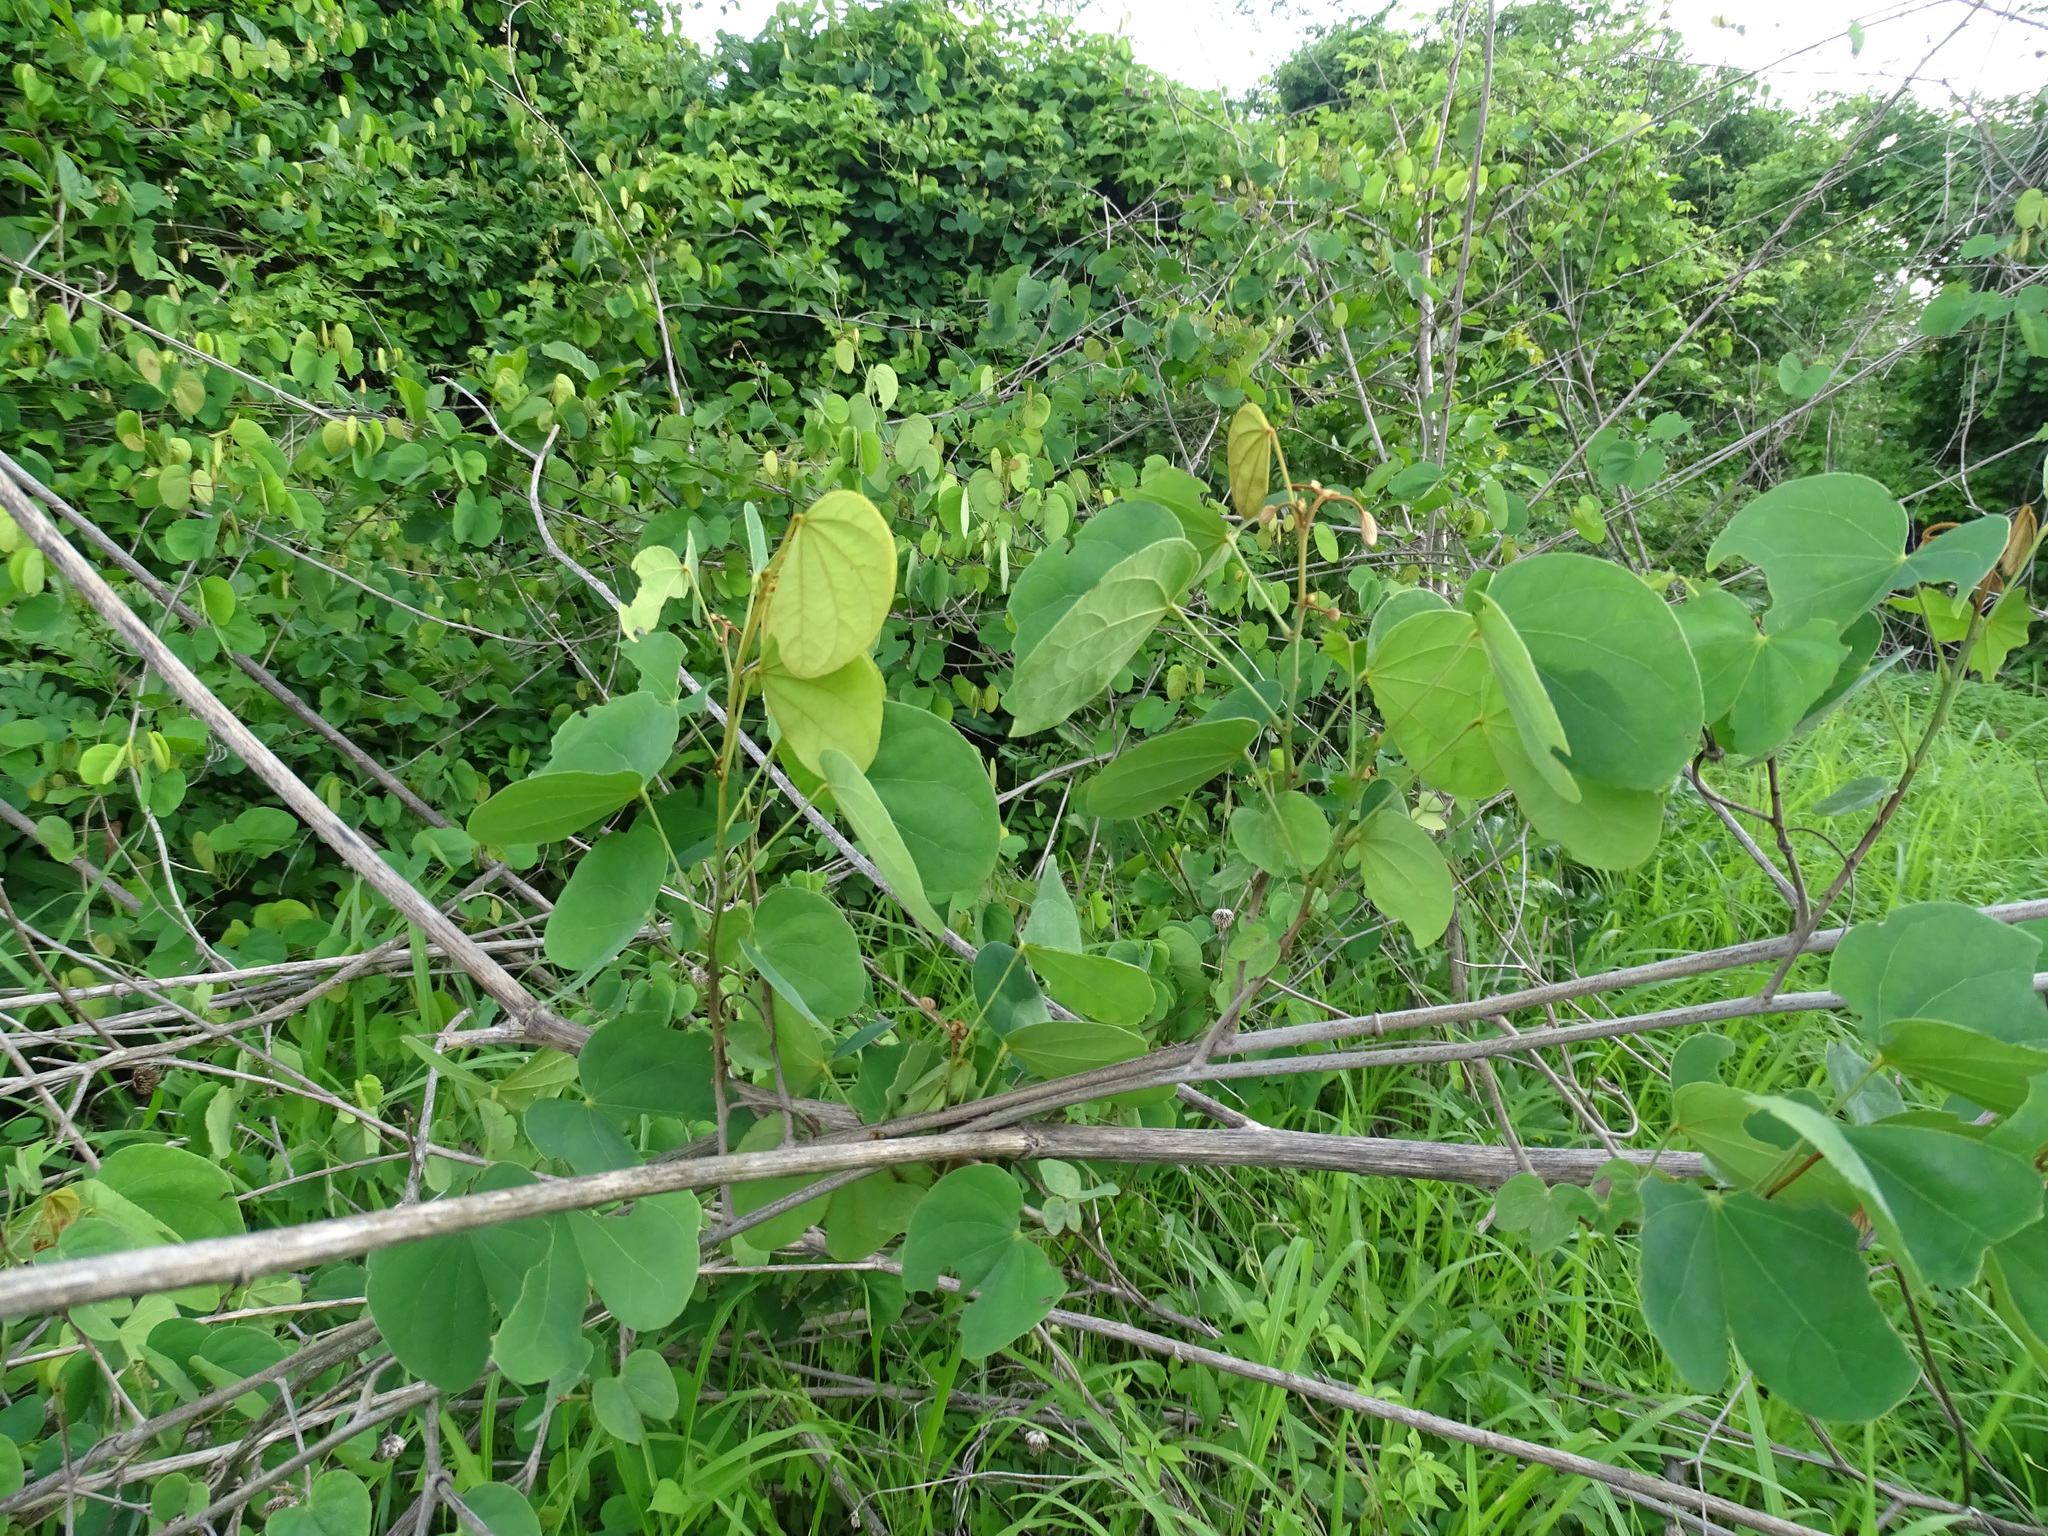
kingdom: Plantae
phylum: Tracheophyta
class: Magnoliopsida
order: Fabales
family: Fabaceae
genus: Schnella
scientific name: Schnella glabra
